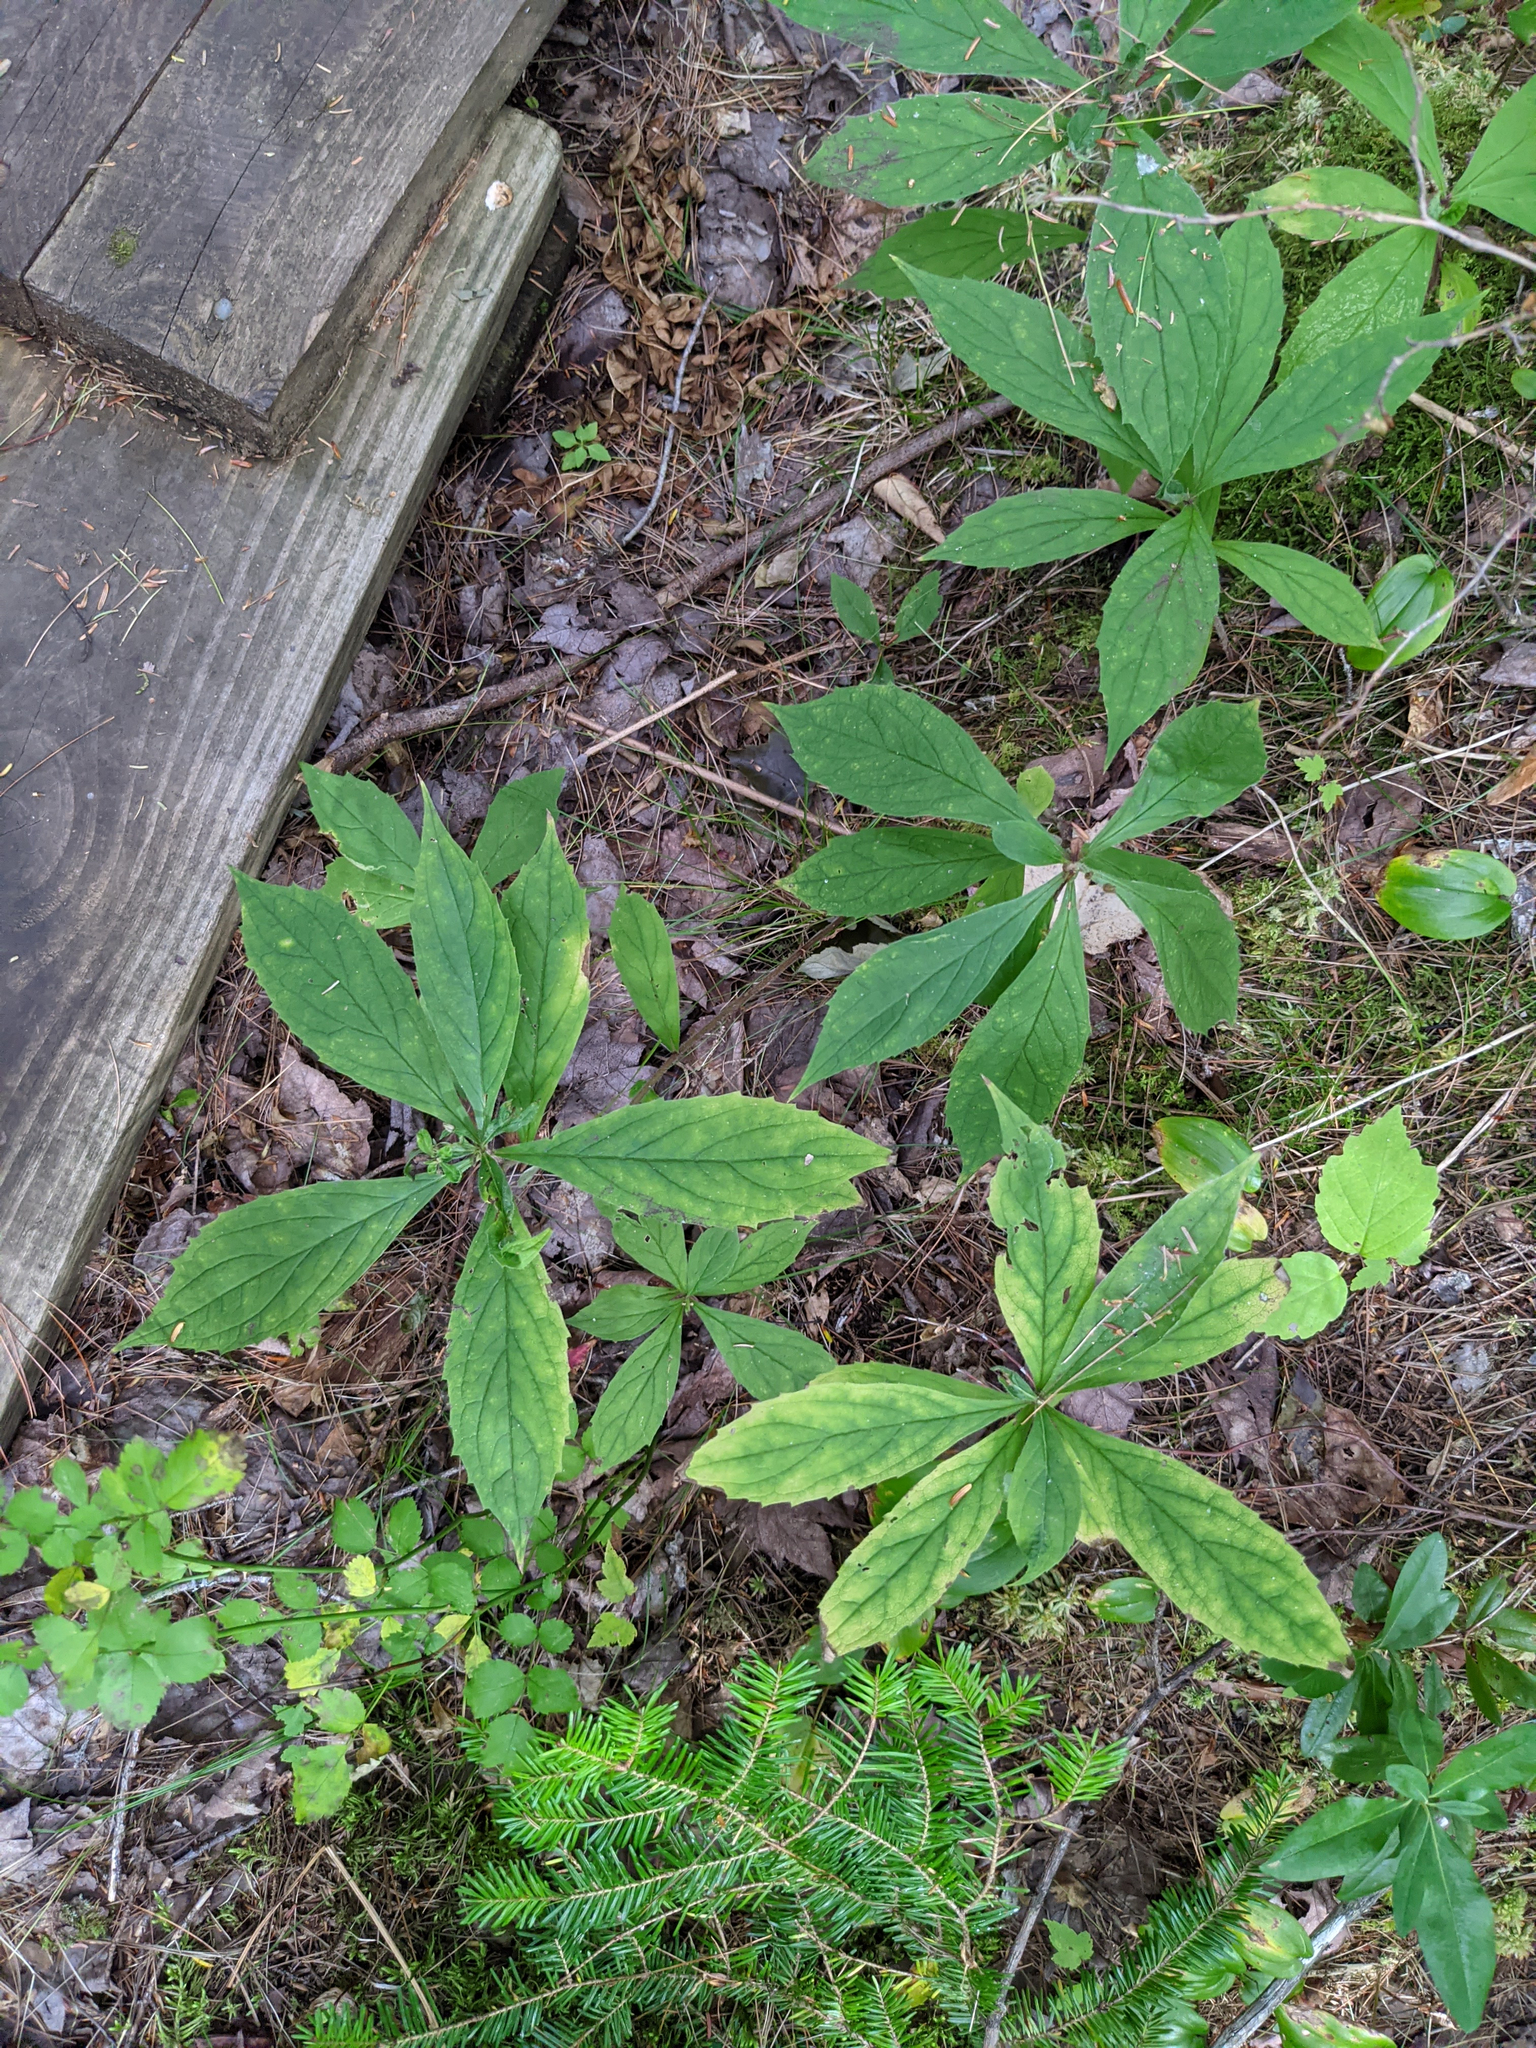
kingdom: Plantae
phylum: Tracheophyta
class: Magnoliopsida
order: Asterales
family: Asteraceae
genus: Oclemena
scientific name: Oclemena acuminata
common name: Mountain aster
